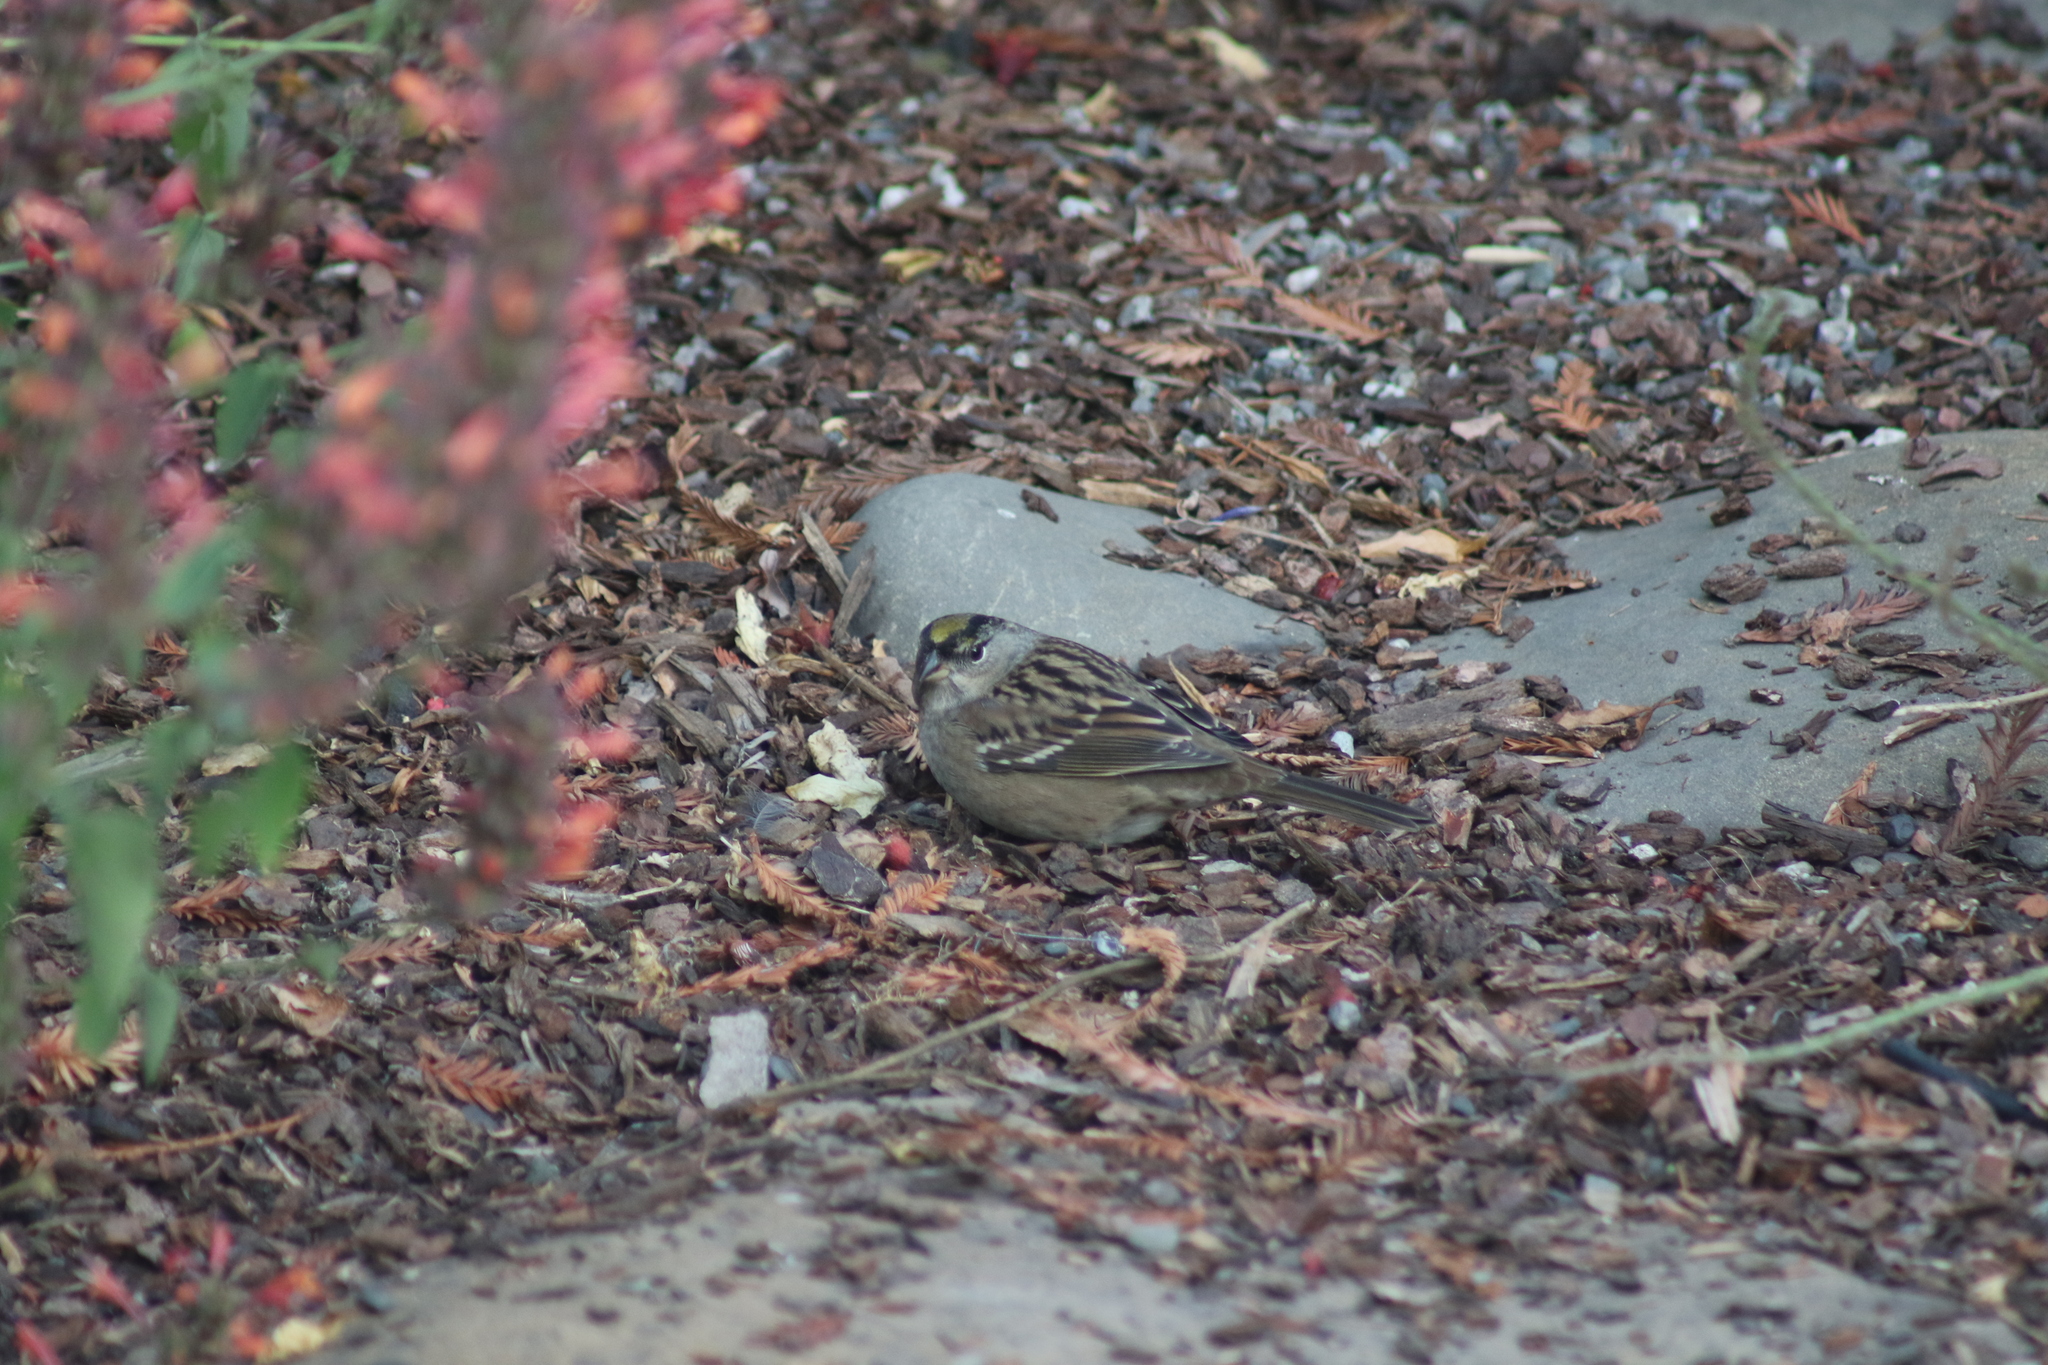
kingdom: Animalia
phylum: Chordata
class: Aves
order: Passeriformes
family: Passerellidae
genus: Zonotrichia
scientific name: Zonotrichia atricapilla
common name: Golden-crowned sparrow
